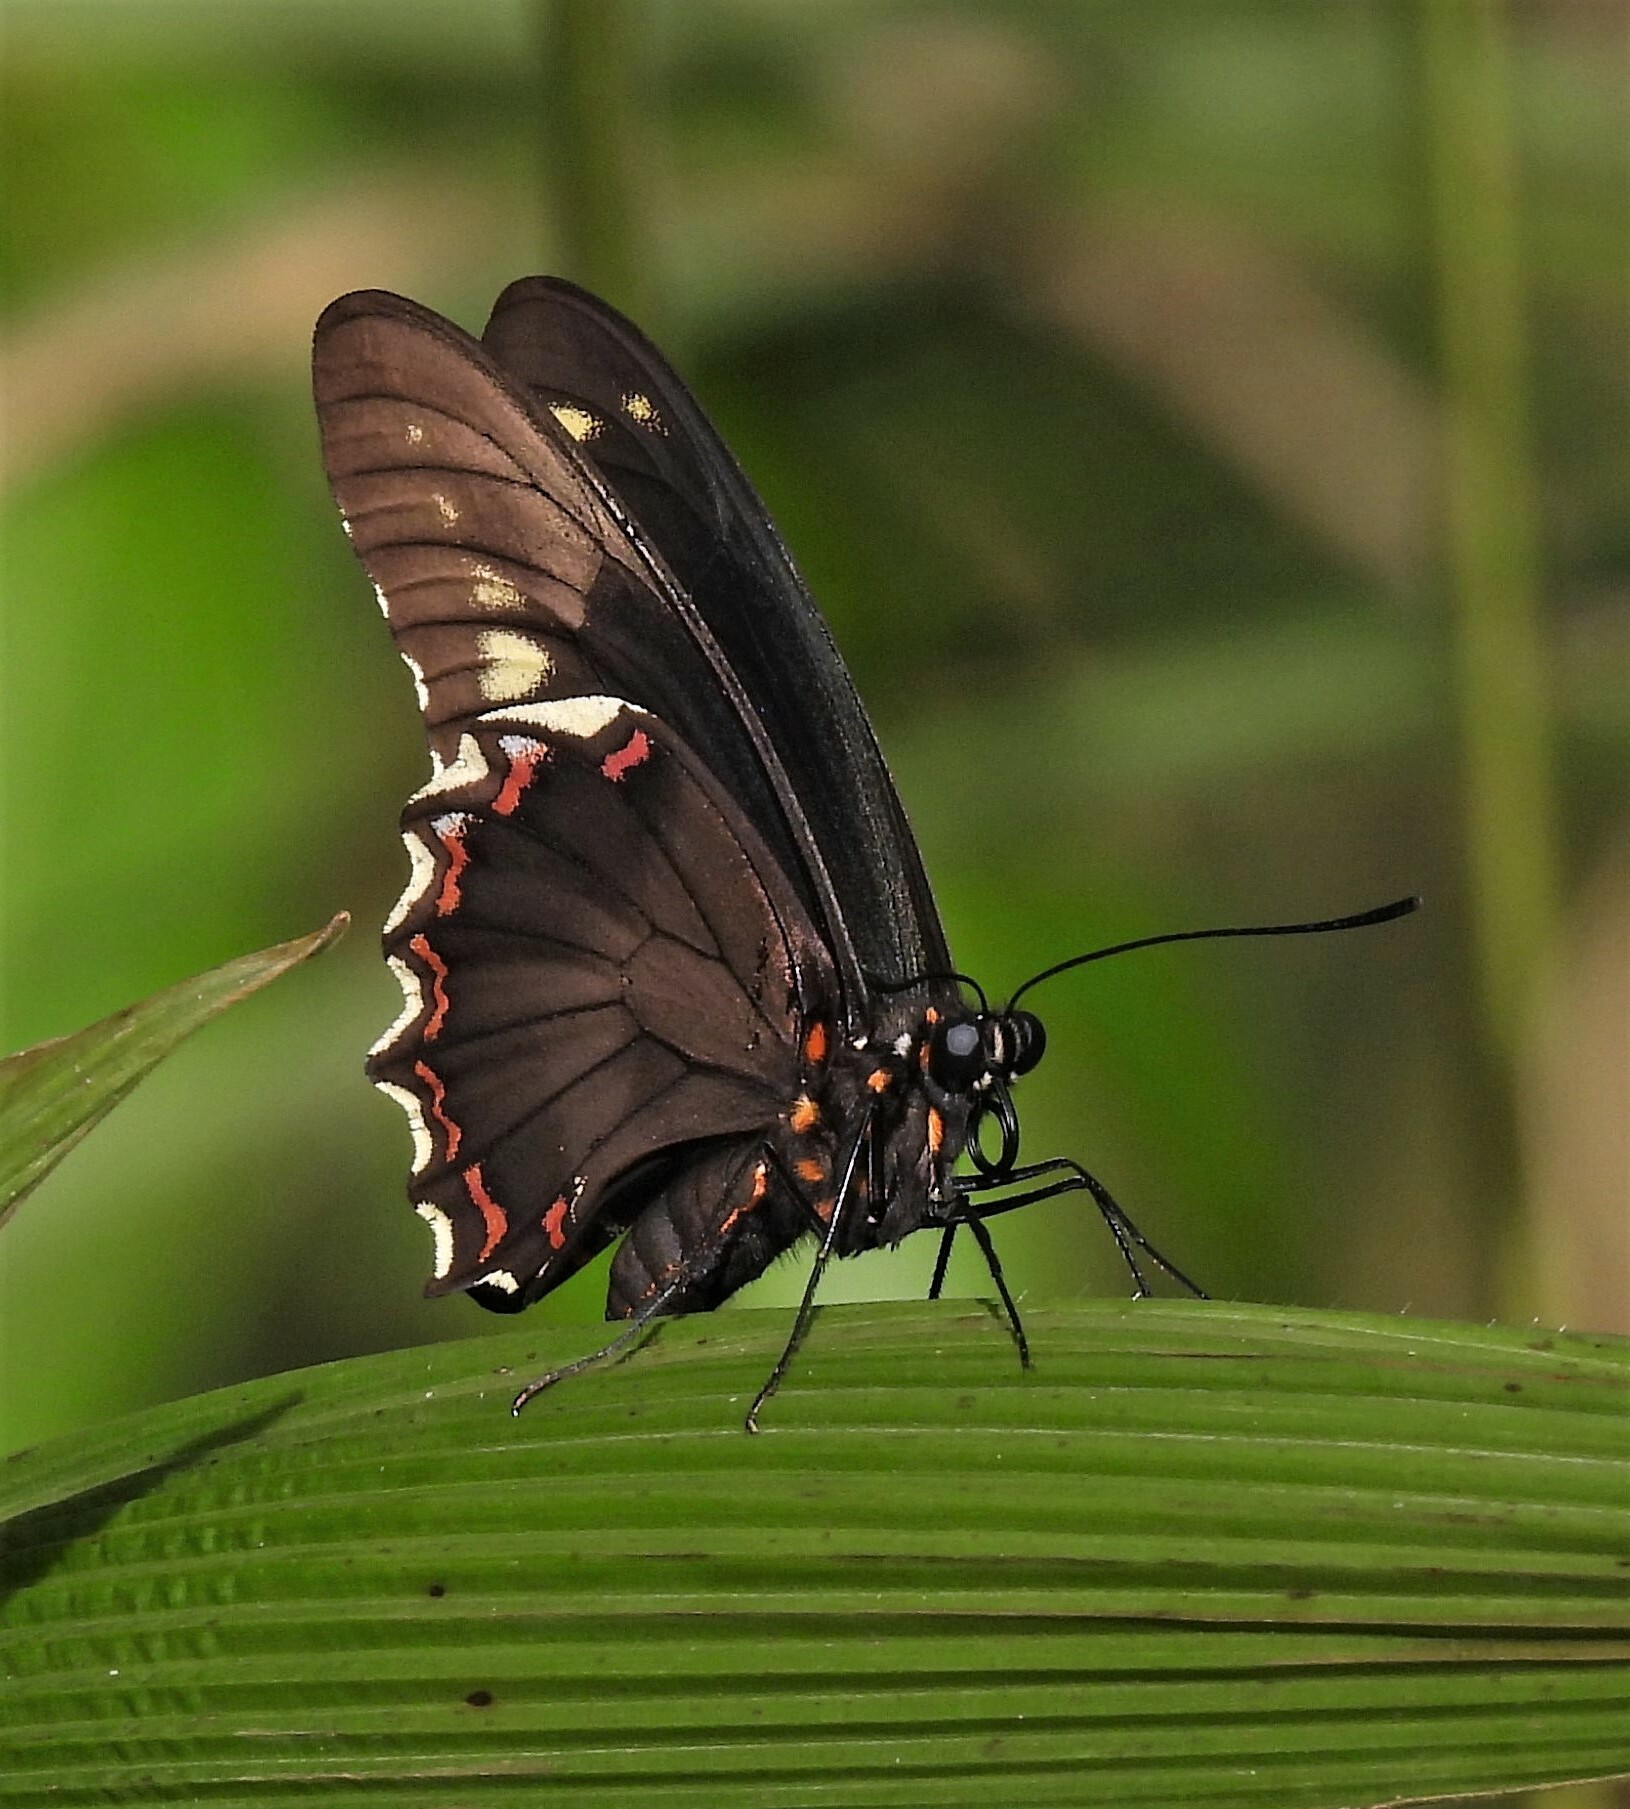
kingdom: Animalia
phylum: Arthropoda
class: Insecta
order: Lepidoptera
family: Papilionidae
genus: Battus
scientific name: Battus polydamas
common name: Polydamas swallowtail
